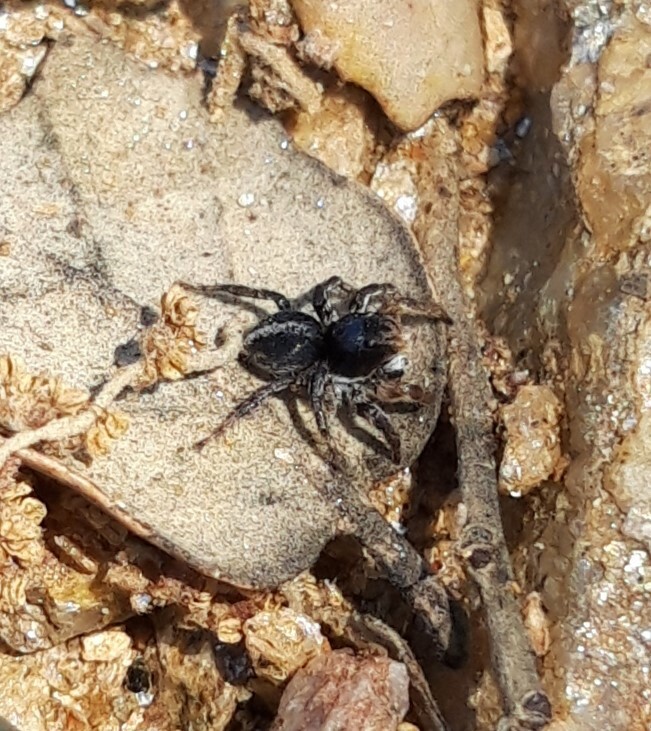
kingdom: Animalia
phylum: Arthropoda
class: Arachnida
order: Araneae
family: Salticidae
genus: Aelurillus
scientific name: Aelurillus v-insignitus
